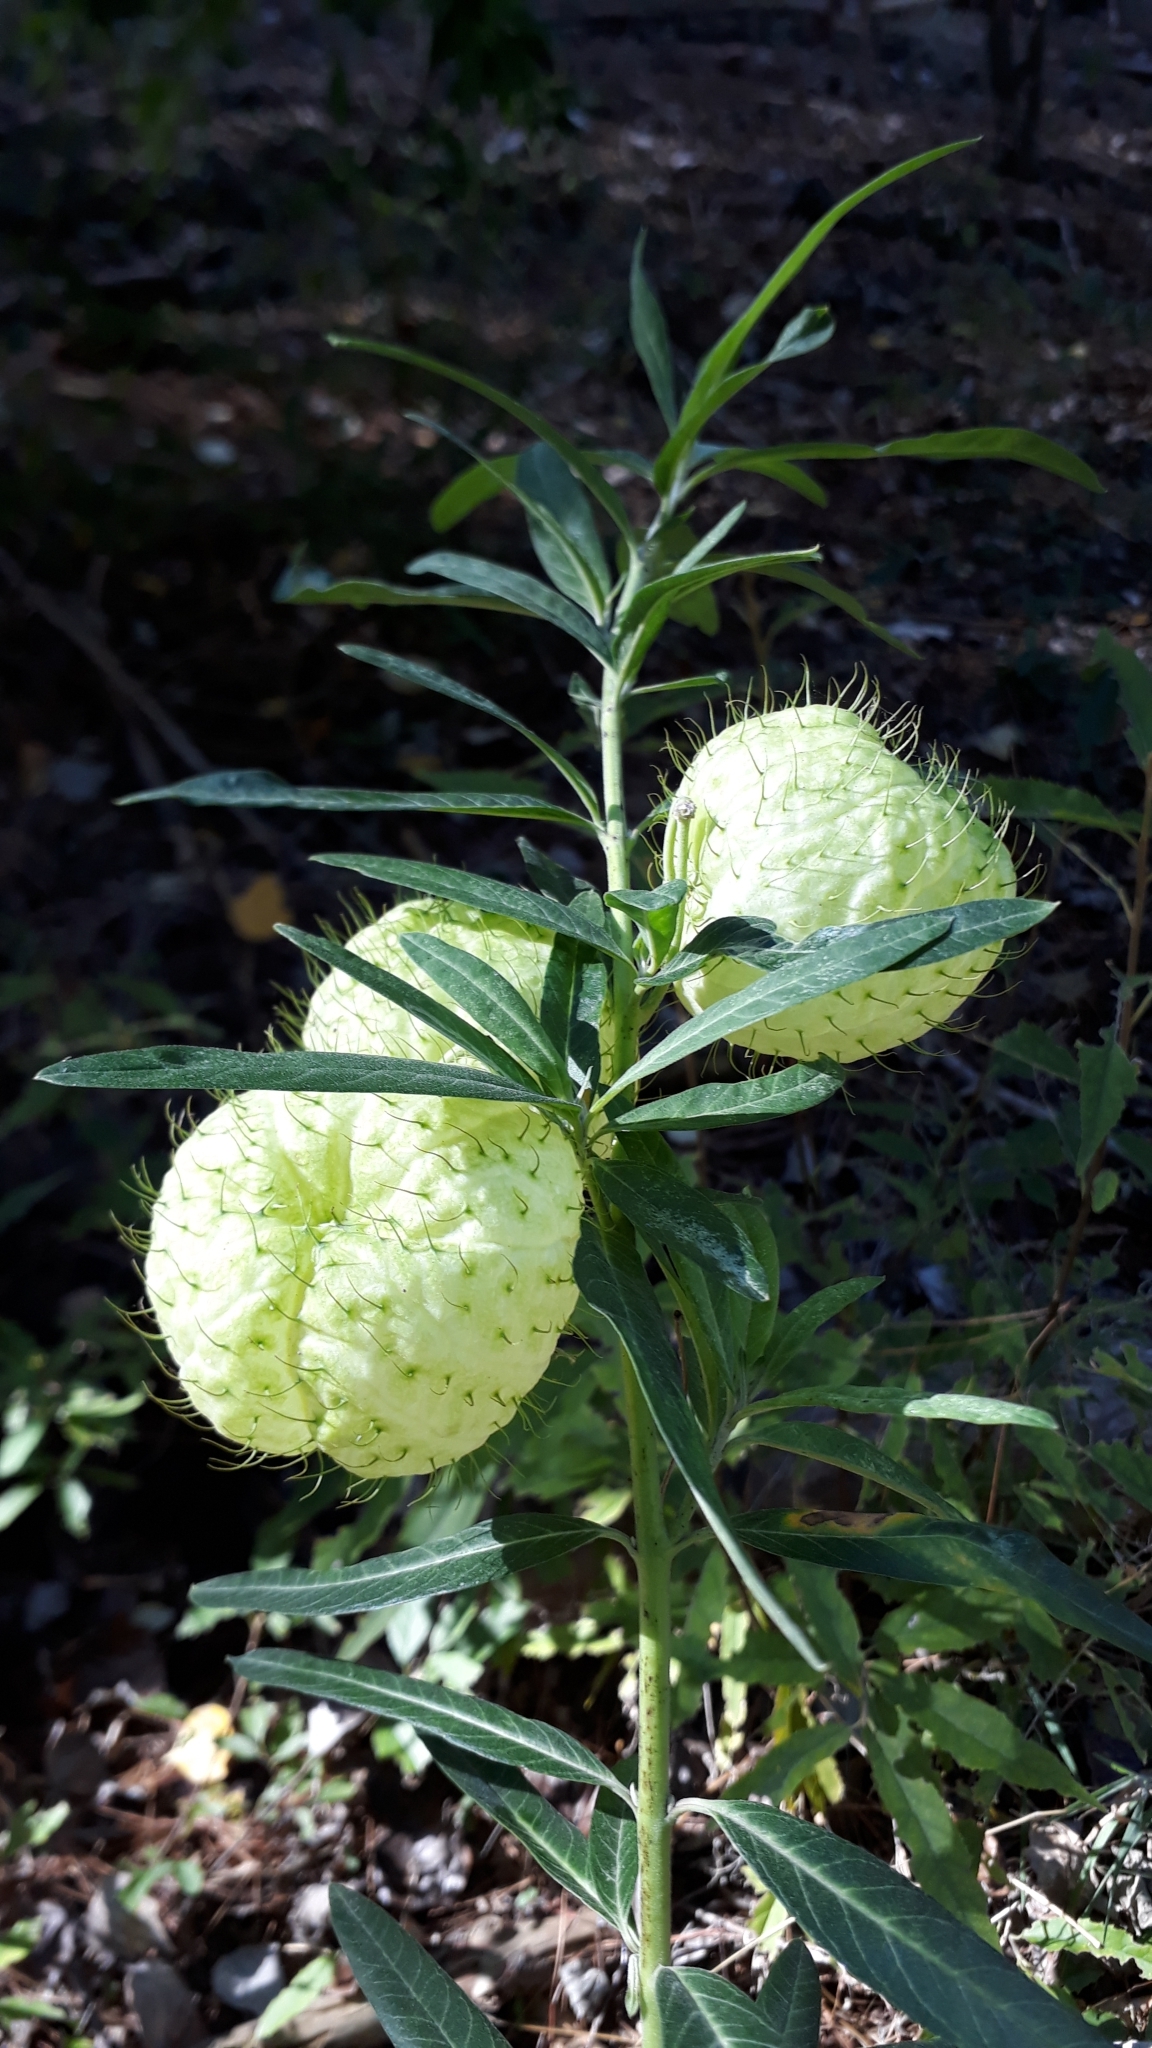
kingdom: Plantae
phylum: Tracheophyta
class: Magnoliopsida
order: Gentianales
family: Apocynaceae
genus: Gomphocarpus
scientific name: Gomphocarpus physocarpus
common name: Balloon cotton bush
